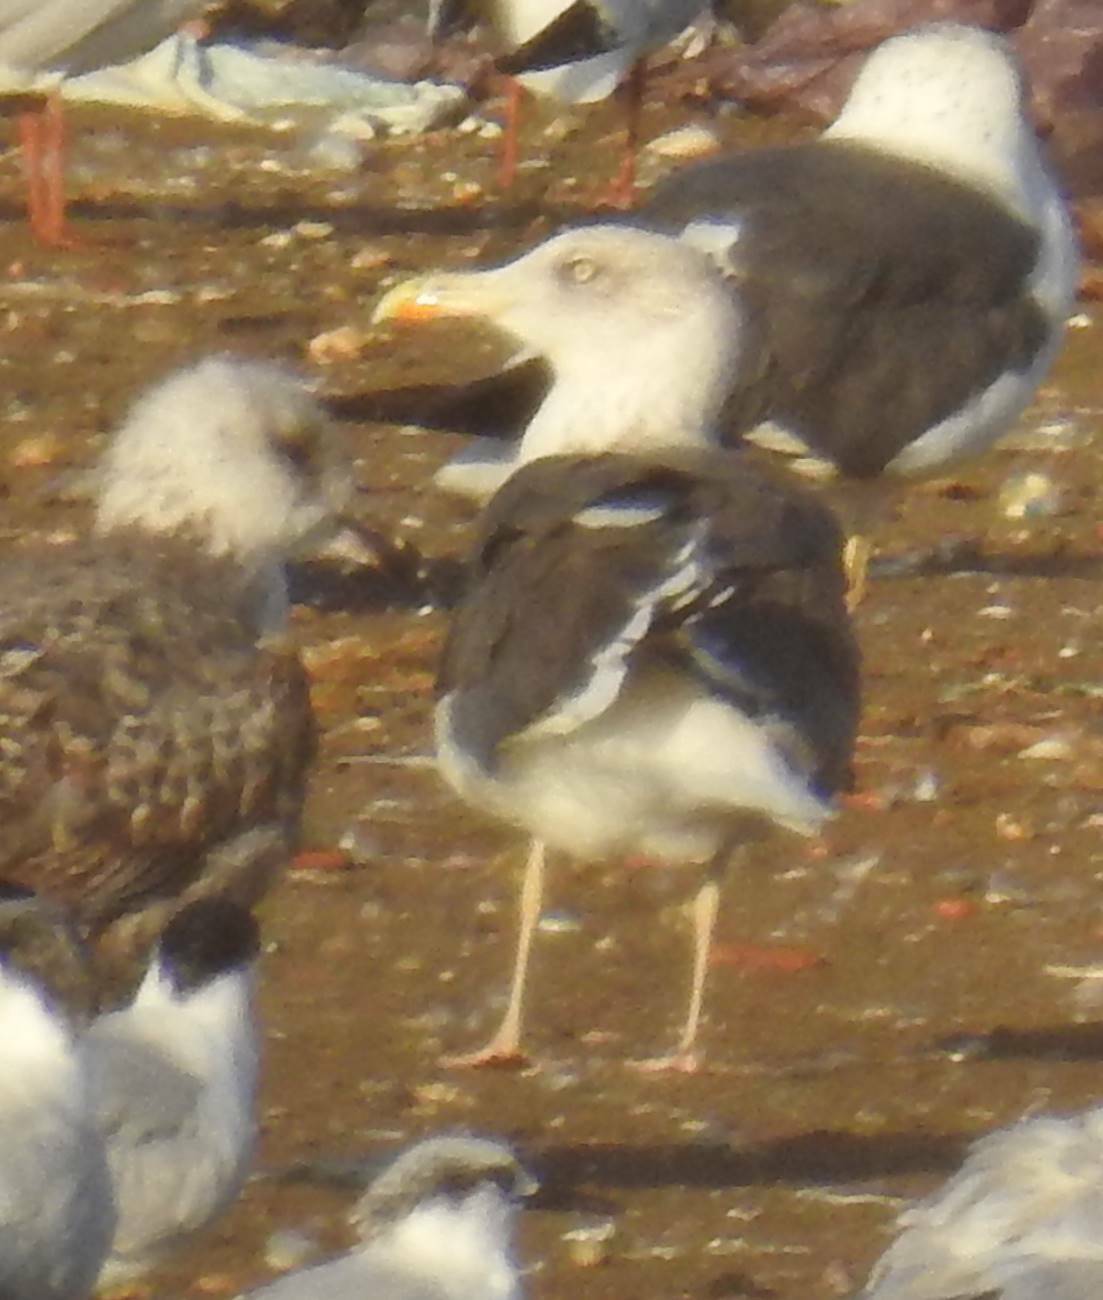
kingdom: Animalia
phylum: Chordata
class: Aves
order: Charadriiformes
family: Laridae
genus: Larus
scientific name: Larus fuscus
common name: Lesser black-backed gull
